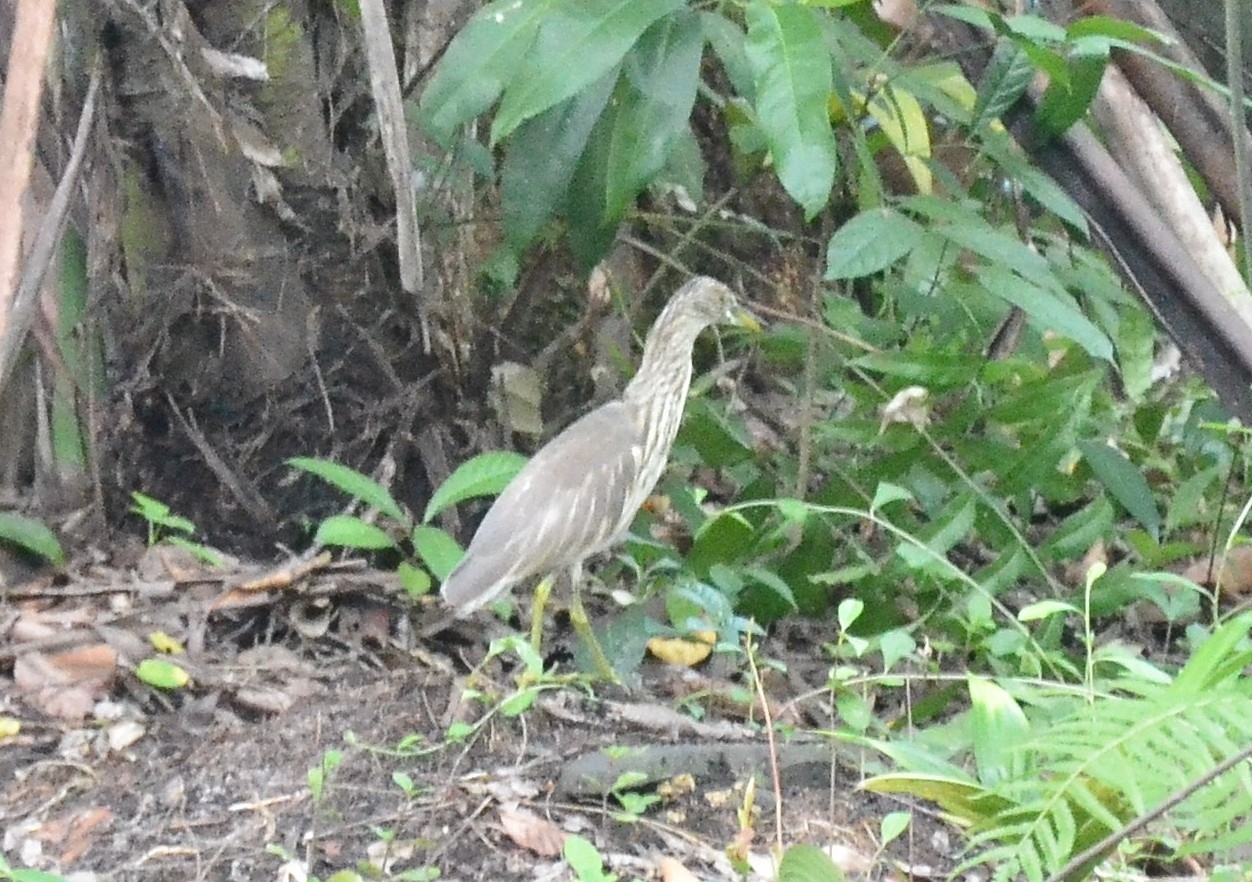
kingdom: Animalia
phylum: Chordata
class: Aves
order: Pelecaniformes
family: Ardeidae
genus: Ardeola
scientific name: Ardeola grayii
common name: Indian pond heron
